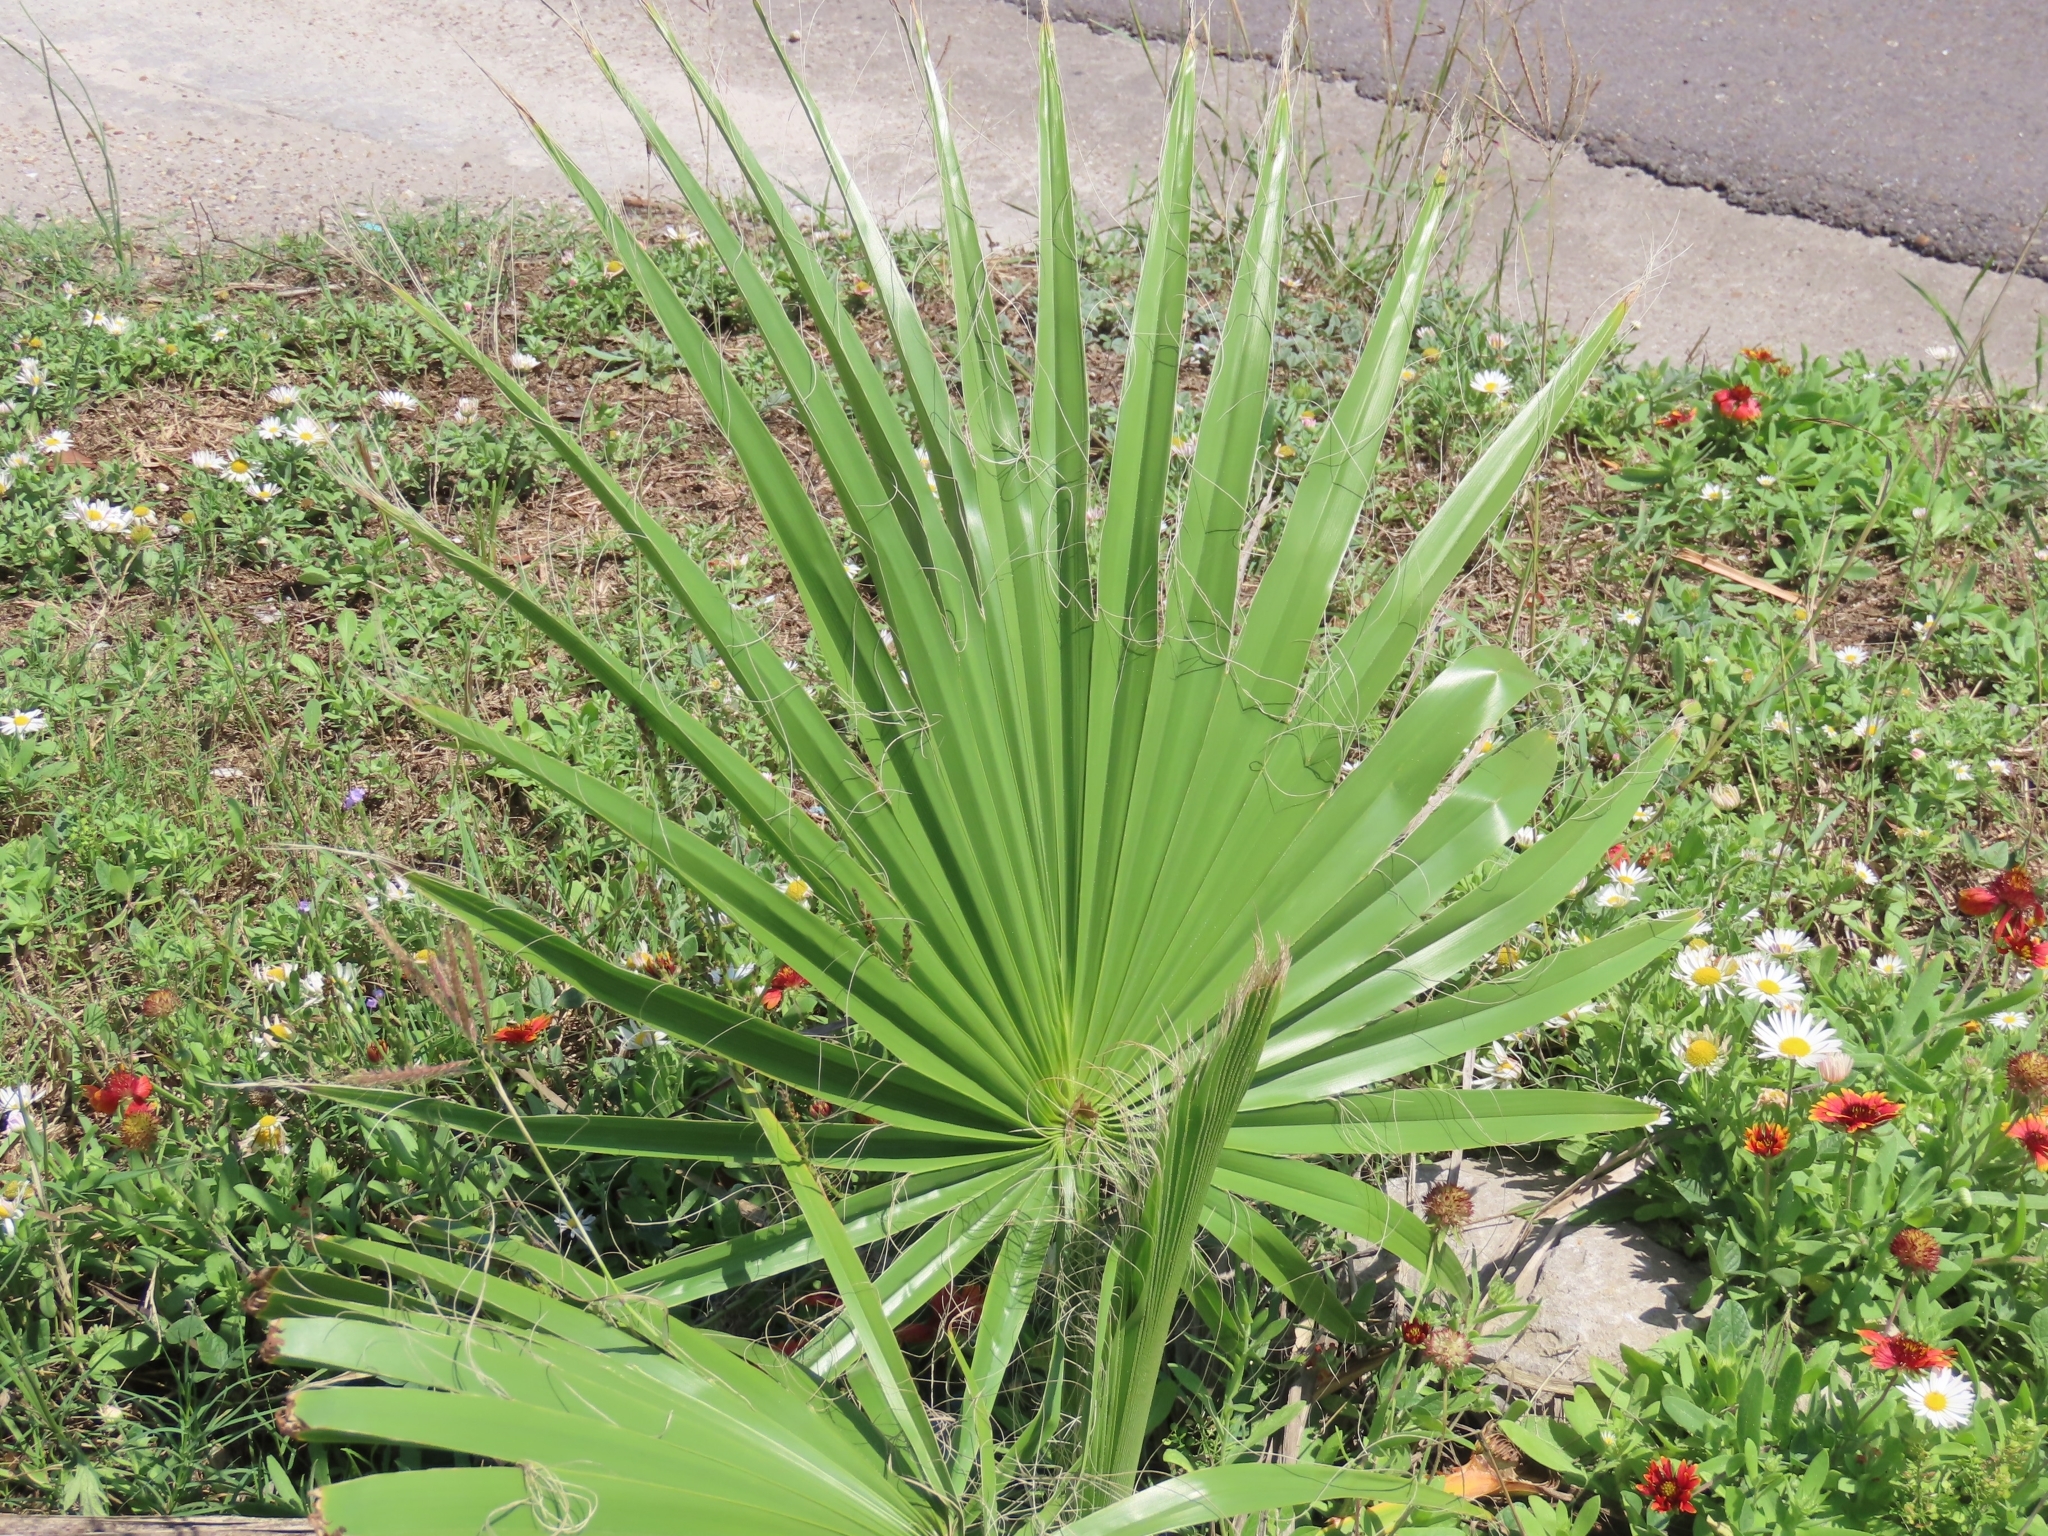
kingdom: Plantae
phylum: Tracheophyta
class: Liliopsida
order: Arecales
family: Arecaceae
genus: Washingtonia
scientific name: Washingtonia robusta
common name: Mexican fan palm
